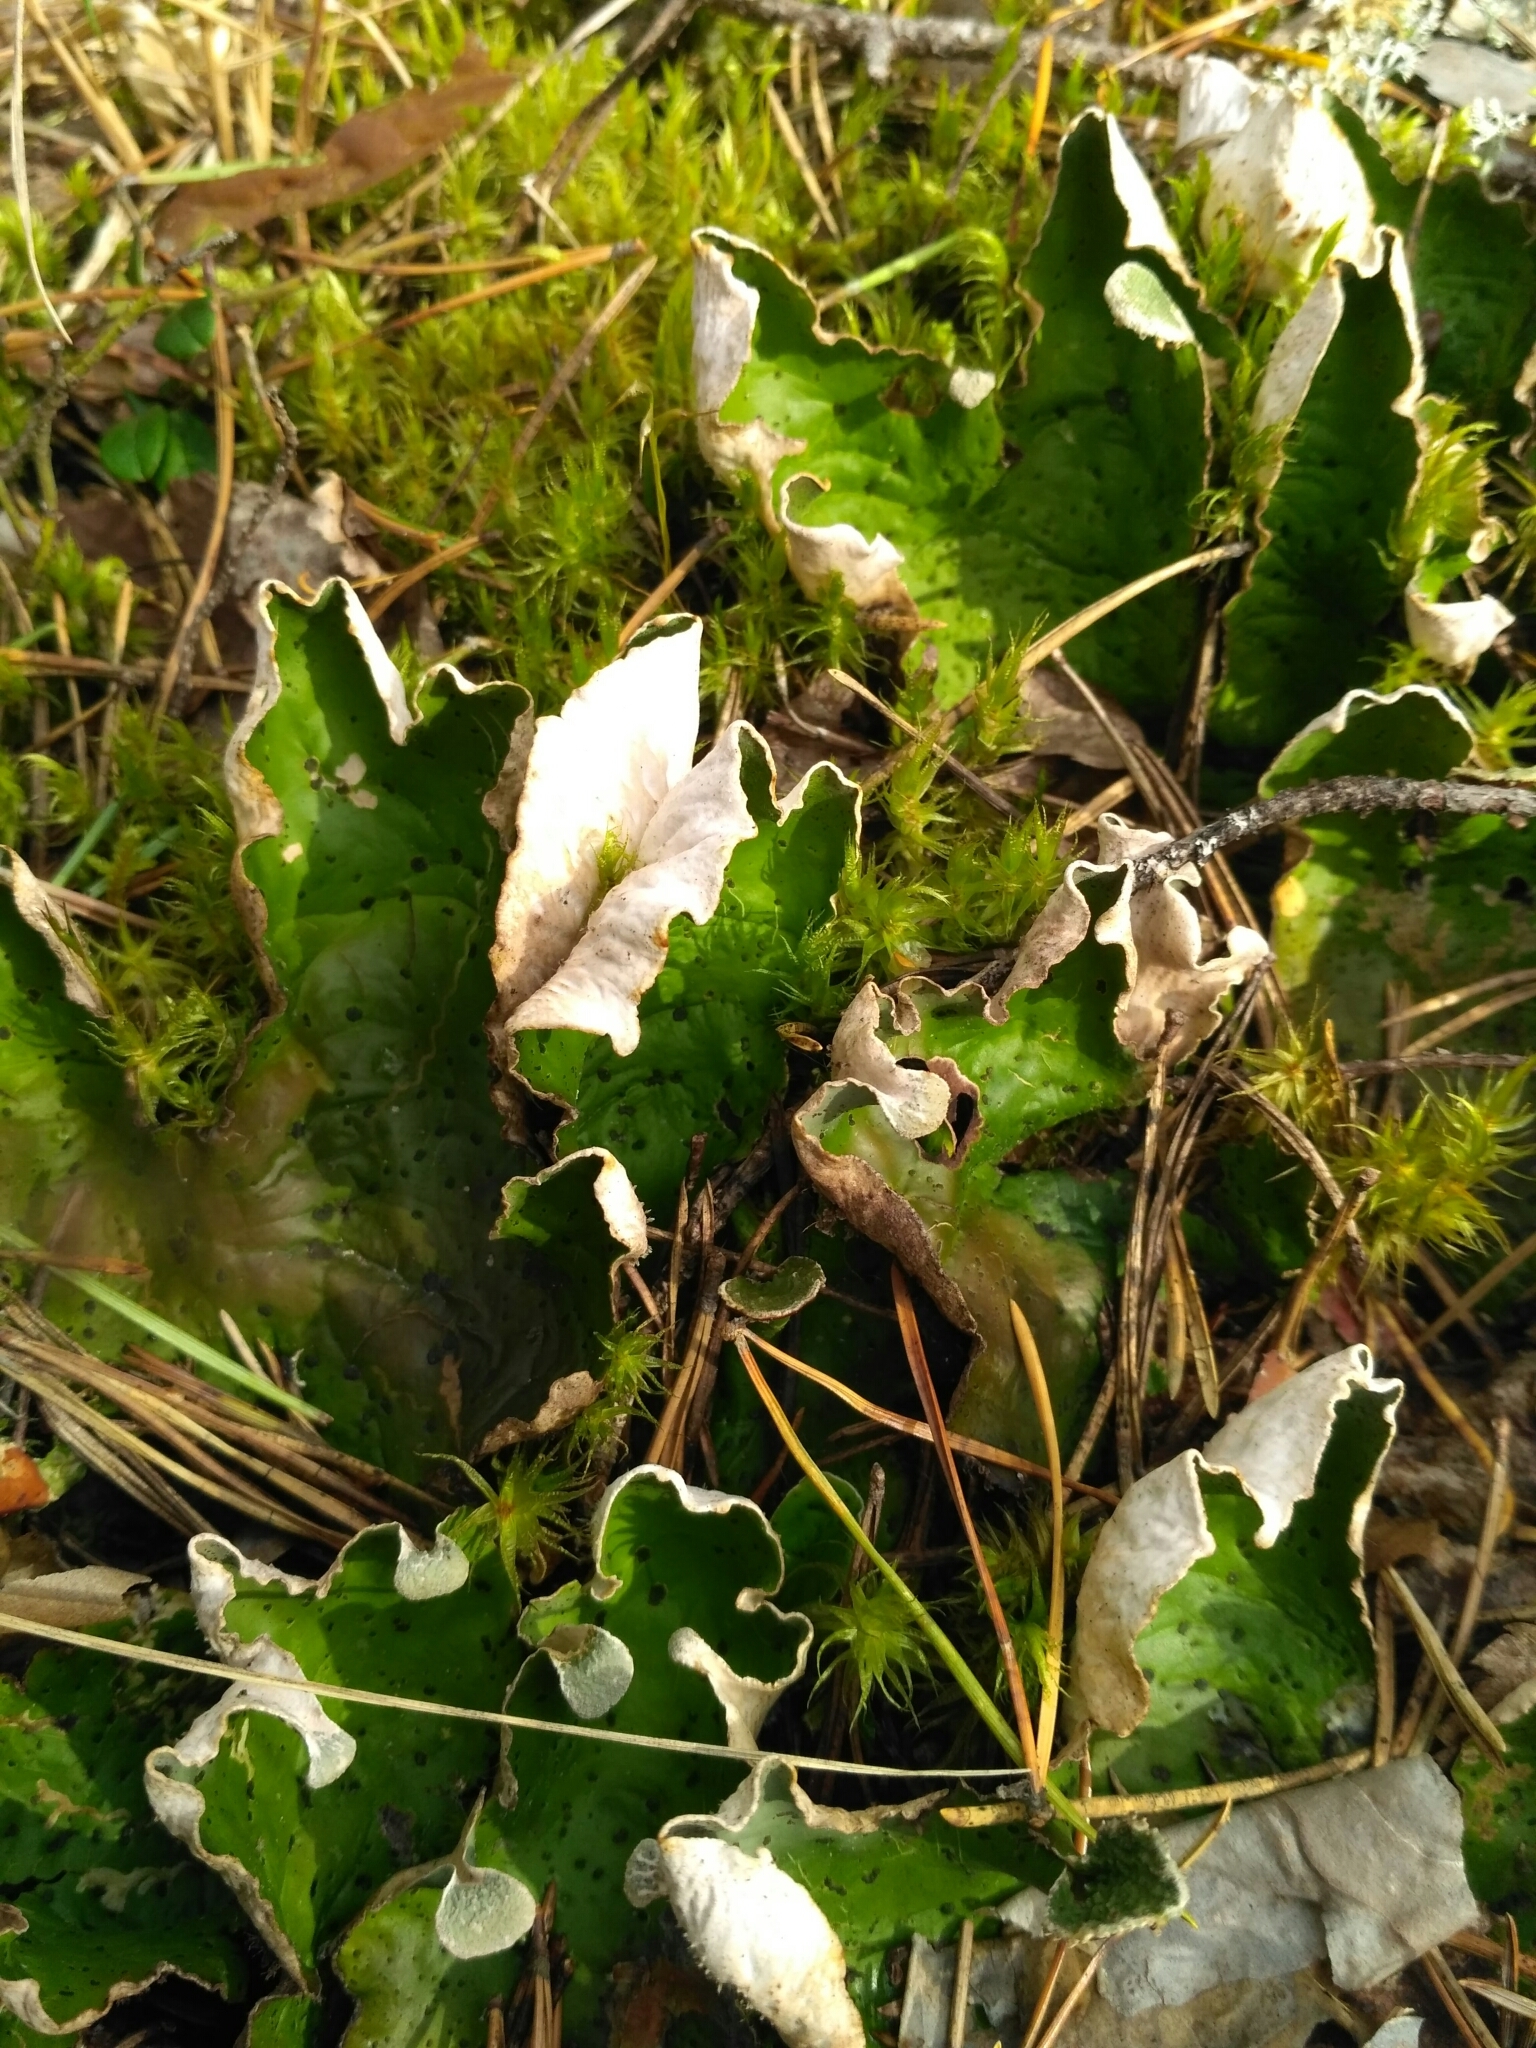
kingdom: Fungi
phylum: Ascomycota
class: Lecanoromycetes
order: Peltigerales
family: Peltigeraceae
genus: Peltigera
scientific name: Peltigera aphthosa
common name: Common freckle pelt lichen
